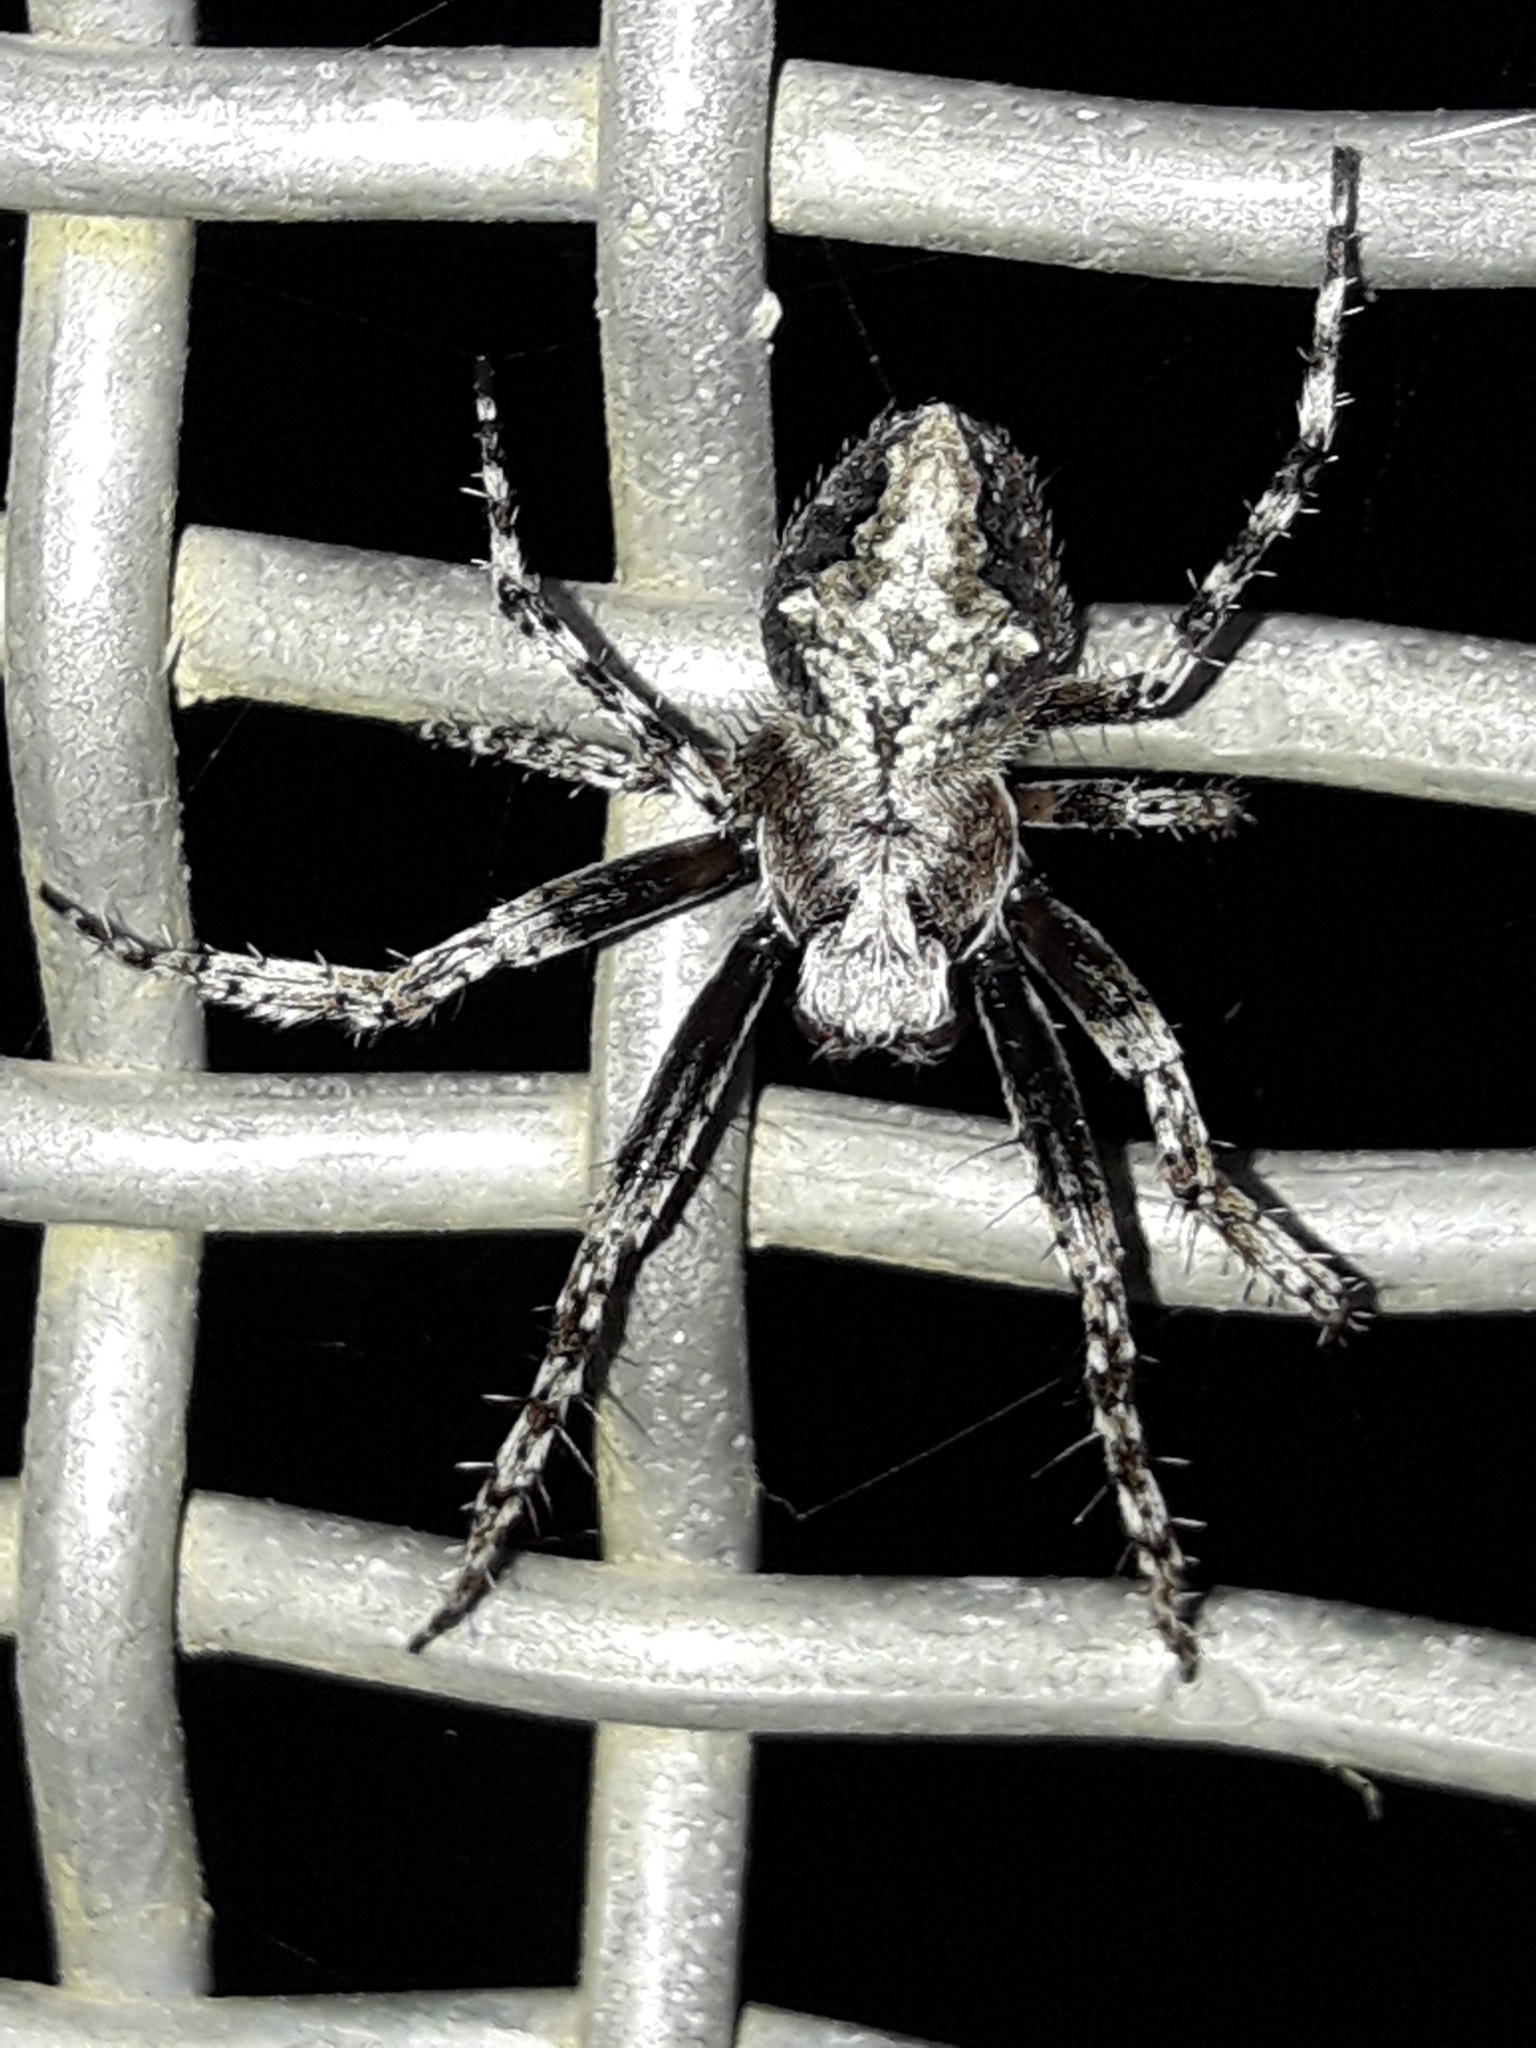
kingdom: Animalia
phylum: Arthropoda
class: Arachnida
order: Araneae
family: Araneidae
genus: Eriophora
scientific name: Eriophora pustulosa
